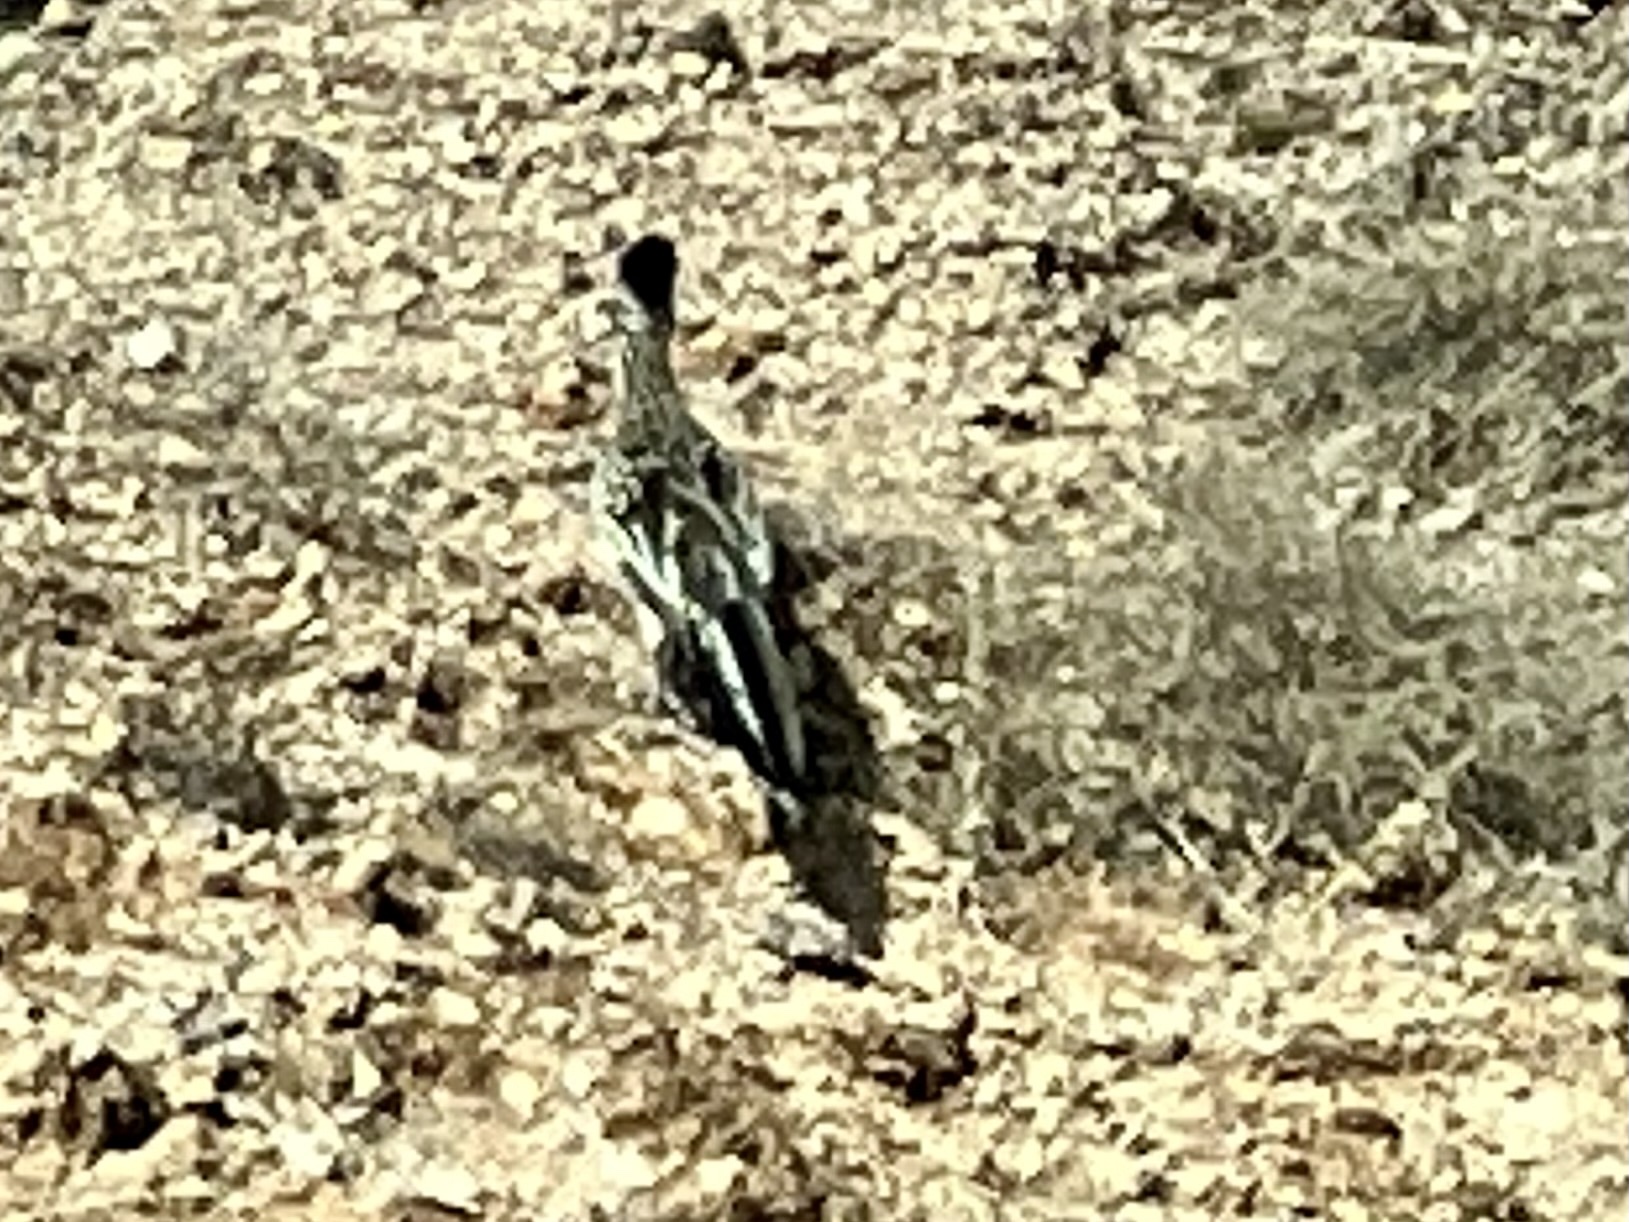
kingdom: Animalia
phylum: Chordata
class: Aves
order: Cuculiformes
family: Cuculidae
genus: Geococcyx
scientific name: Geococcyx californianus
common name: Greater roadrunner
